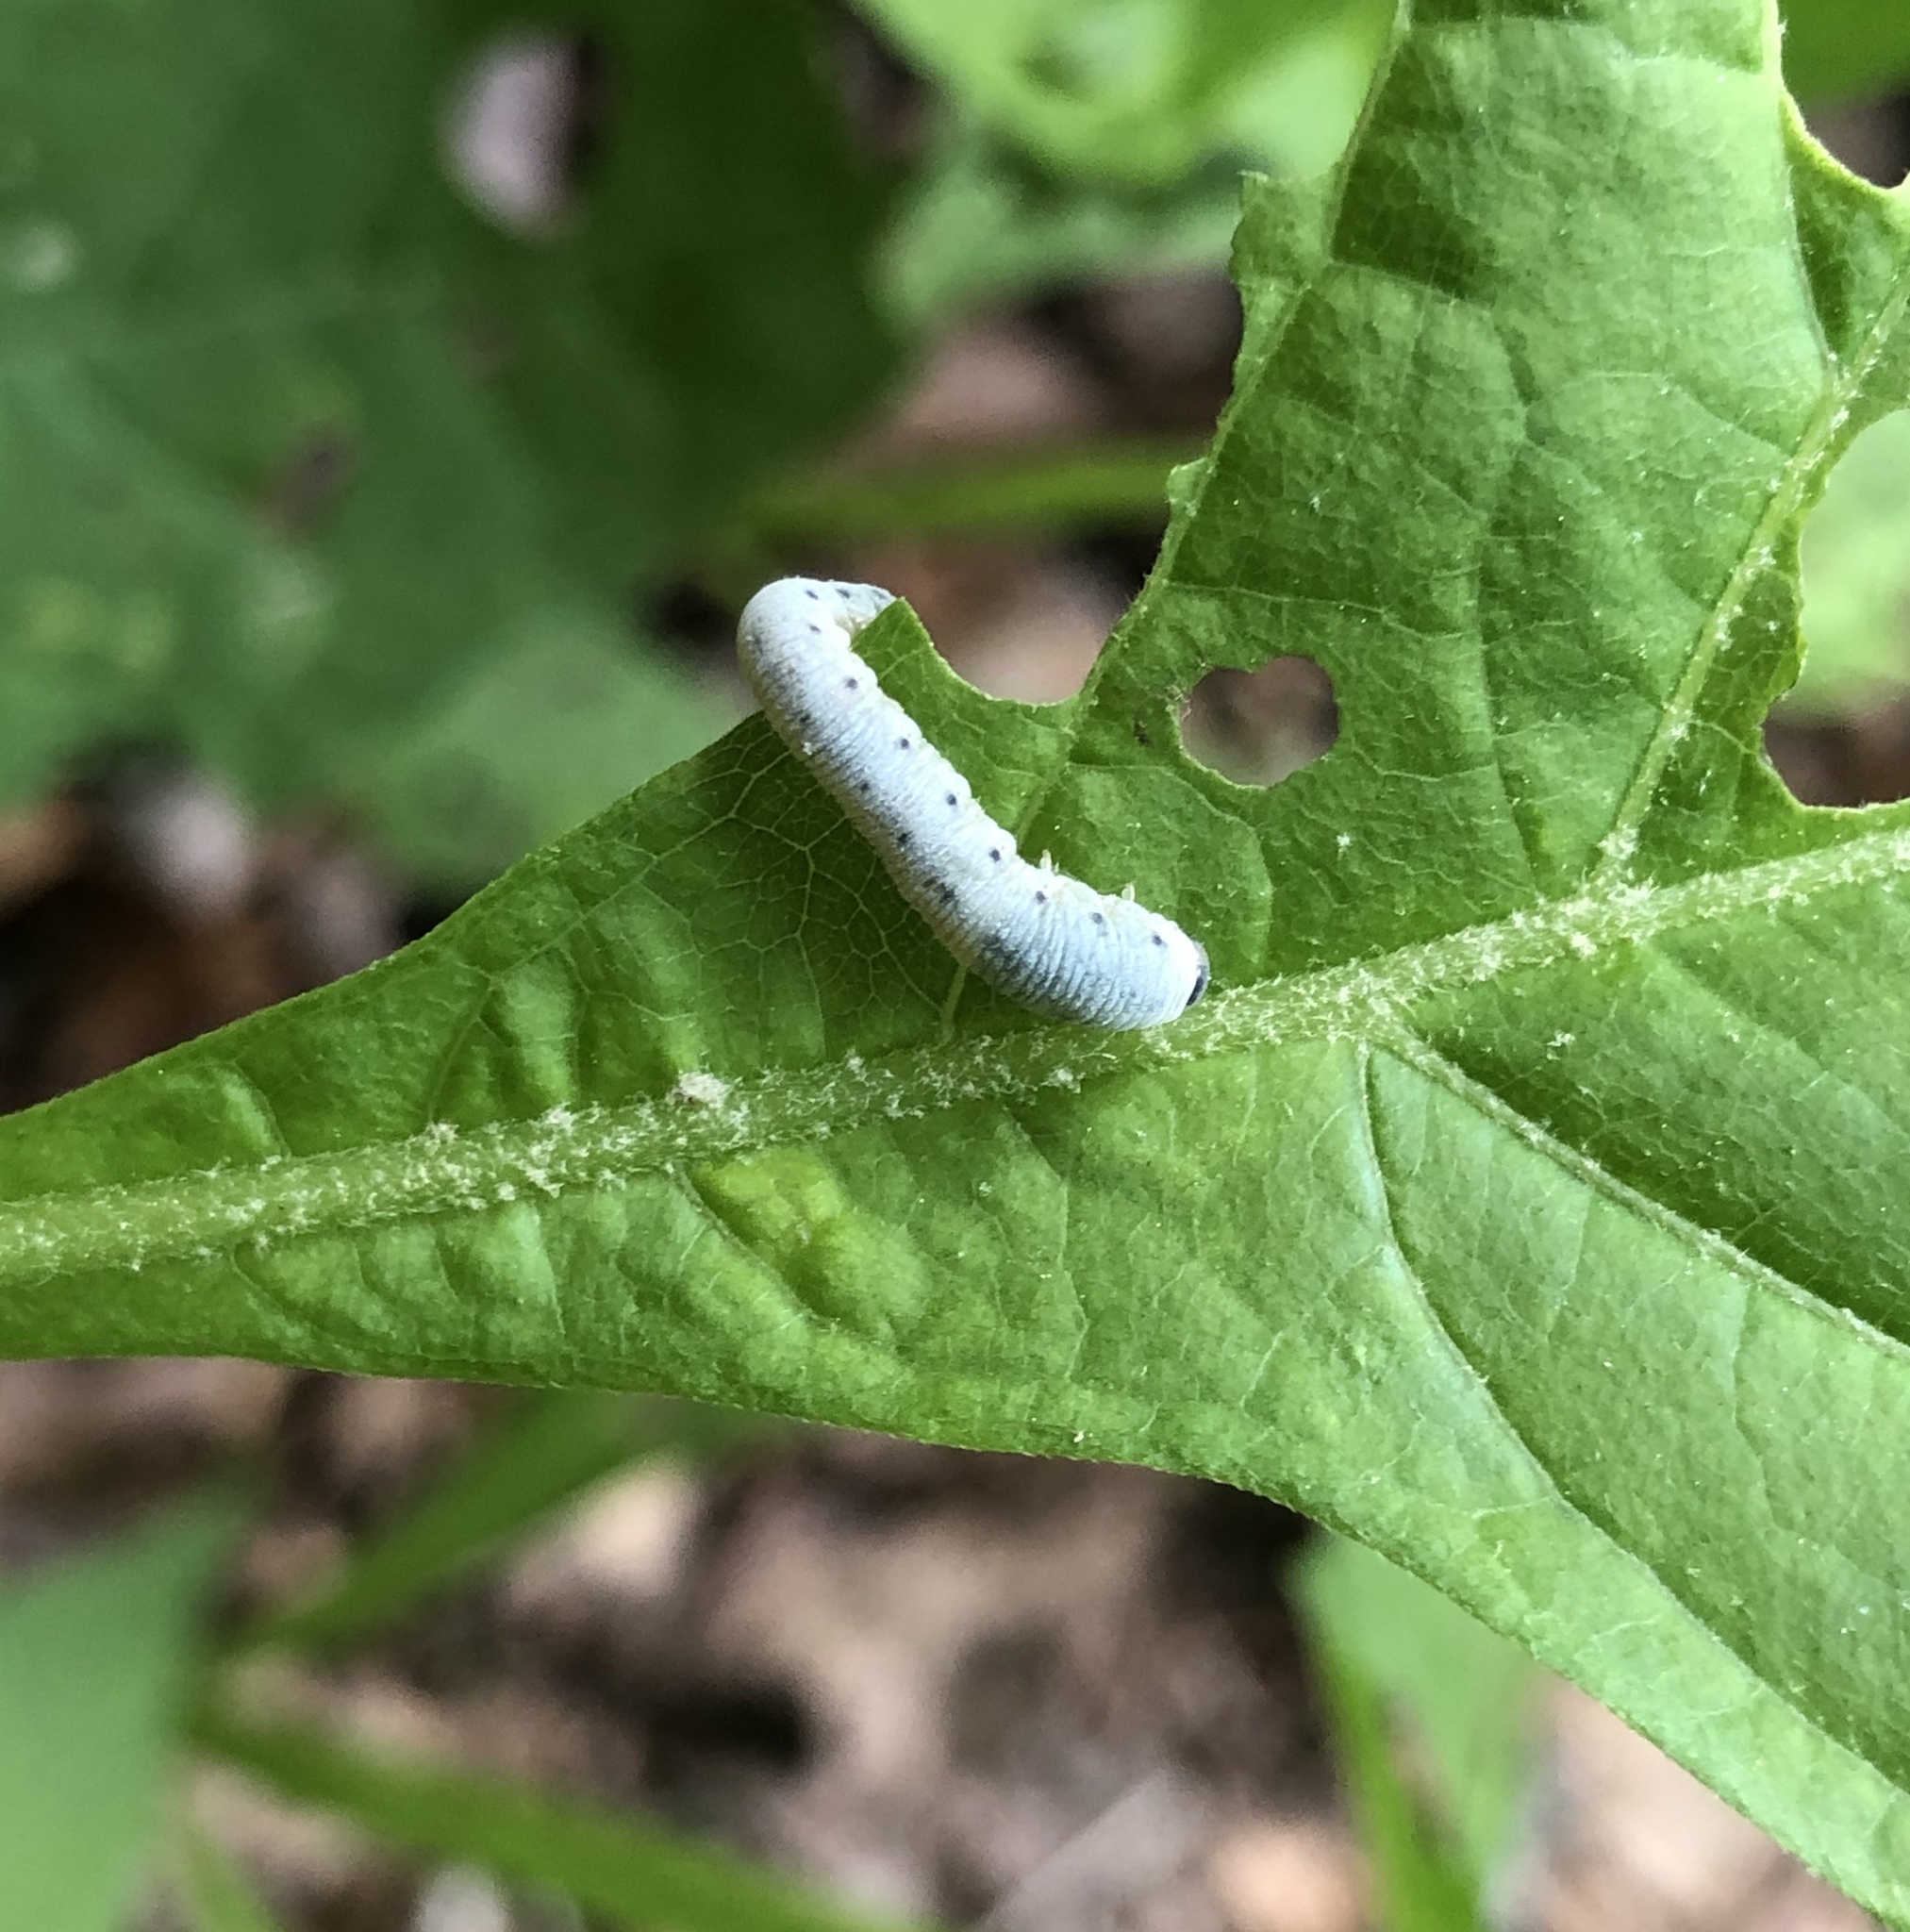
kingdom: Animalia
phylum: Arthropoda
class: Insecta
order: Hymenoptera
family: Tenthredinidae
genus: Macrophya
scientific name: Macrophya
